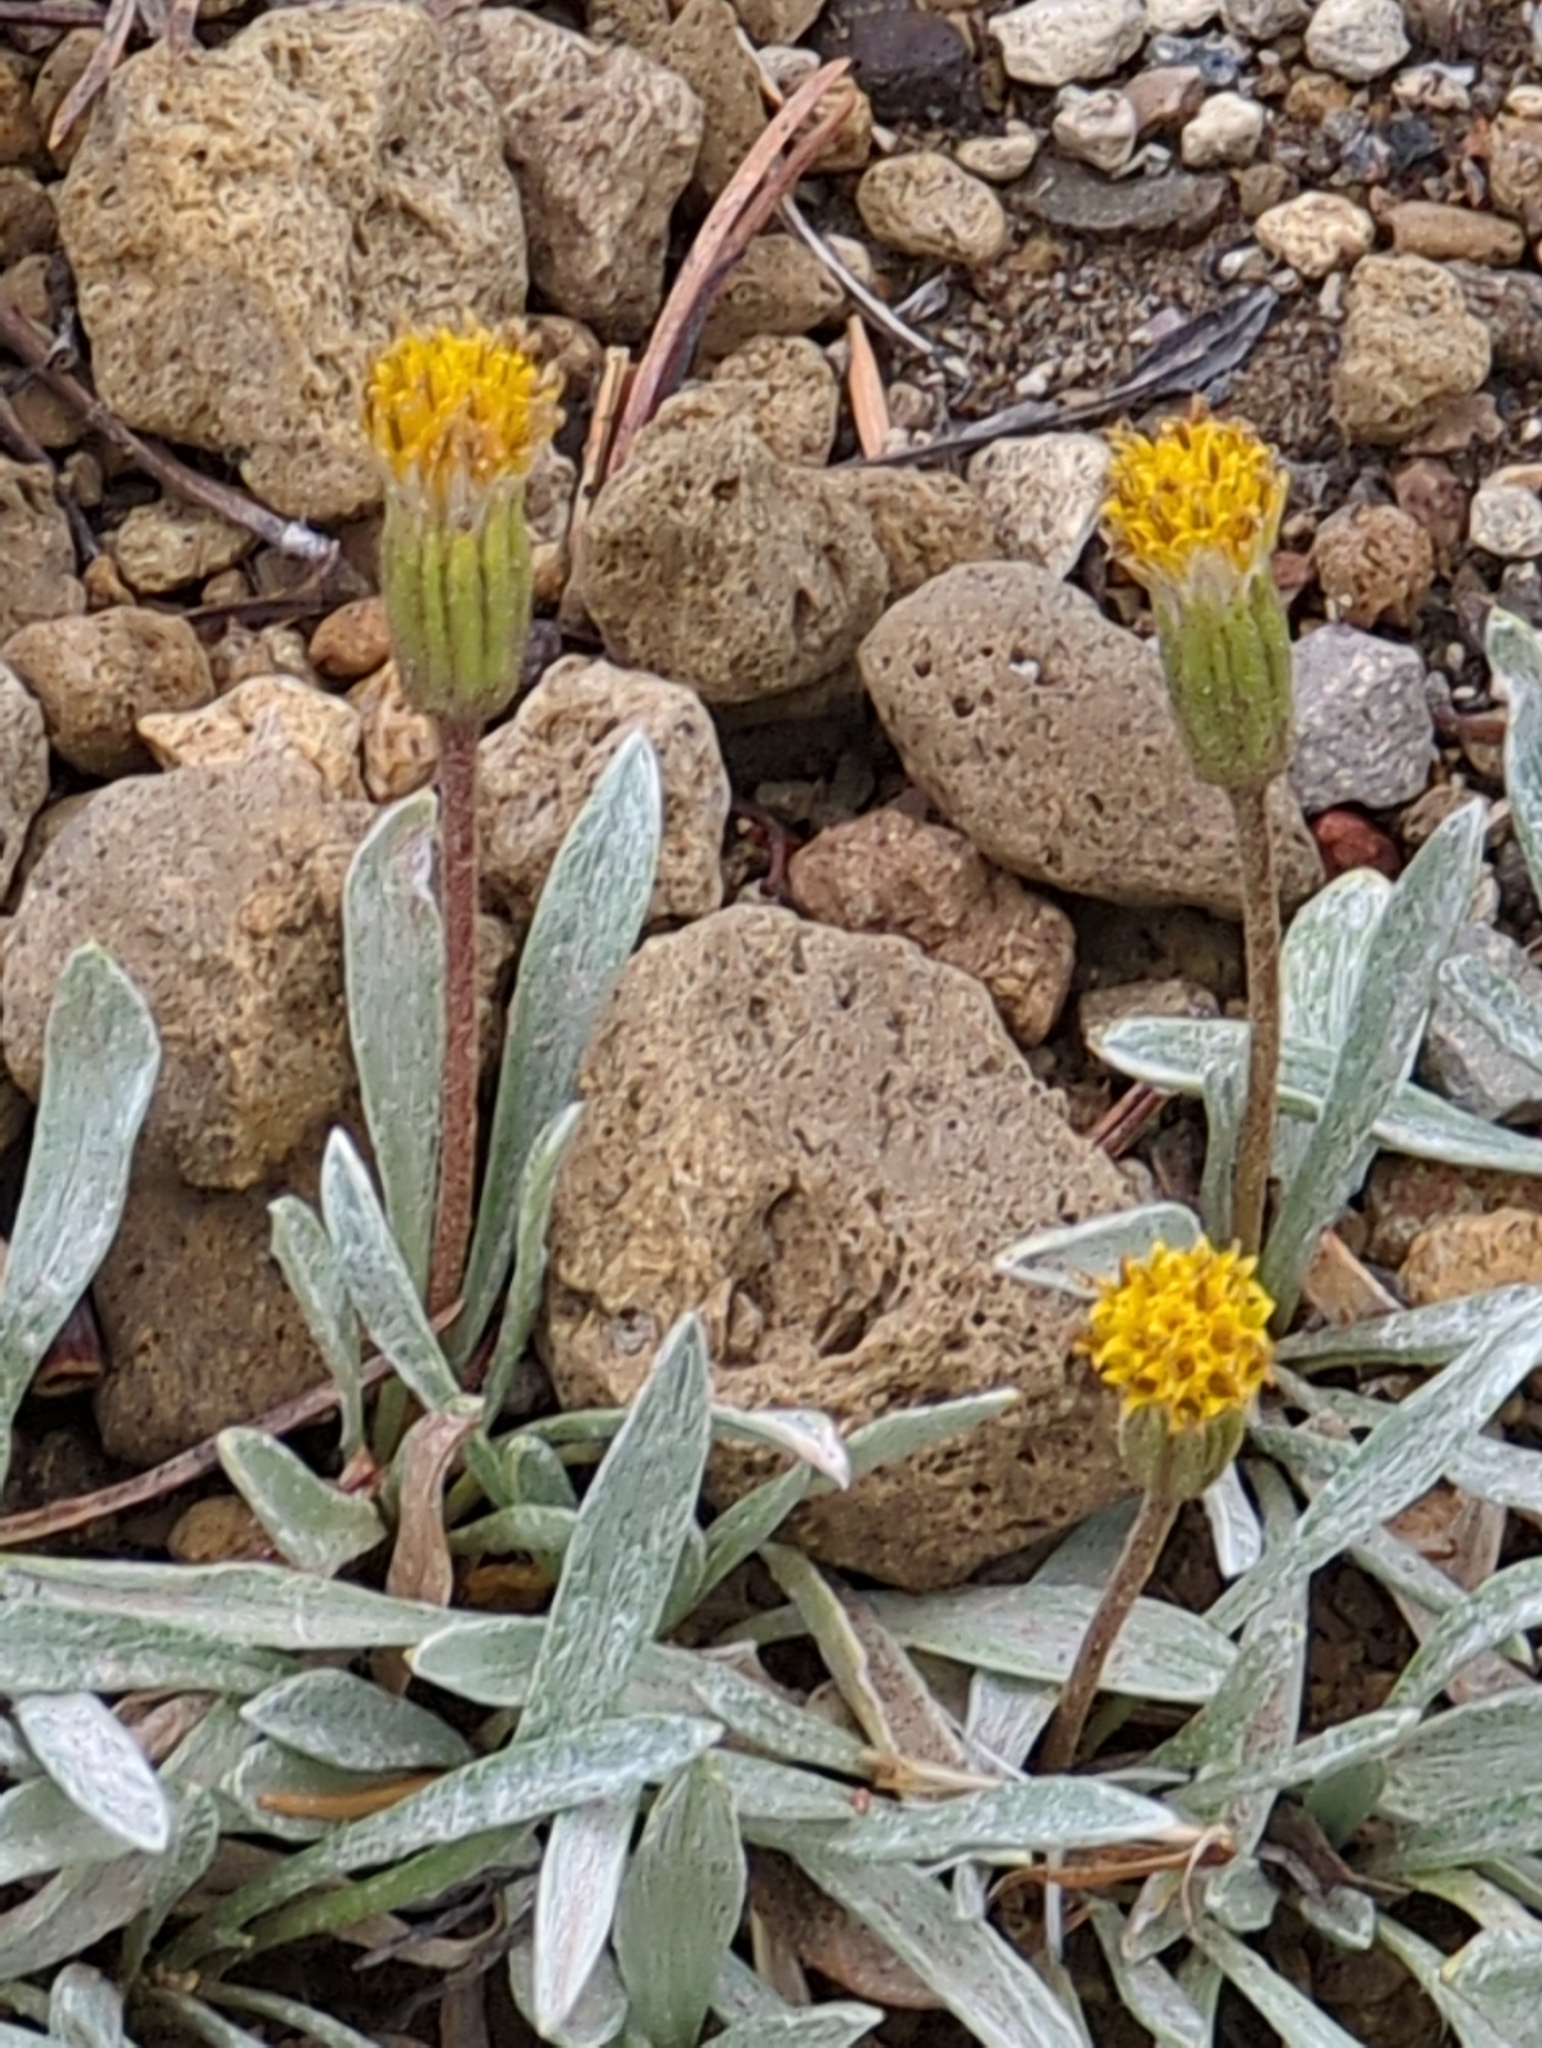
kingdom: Plantae
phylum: Tracheophyta
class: Magnoliopsida
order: Asterales
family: Asteraceae
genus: Raillardella
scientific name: Raillardella argentea
